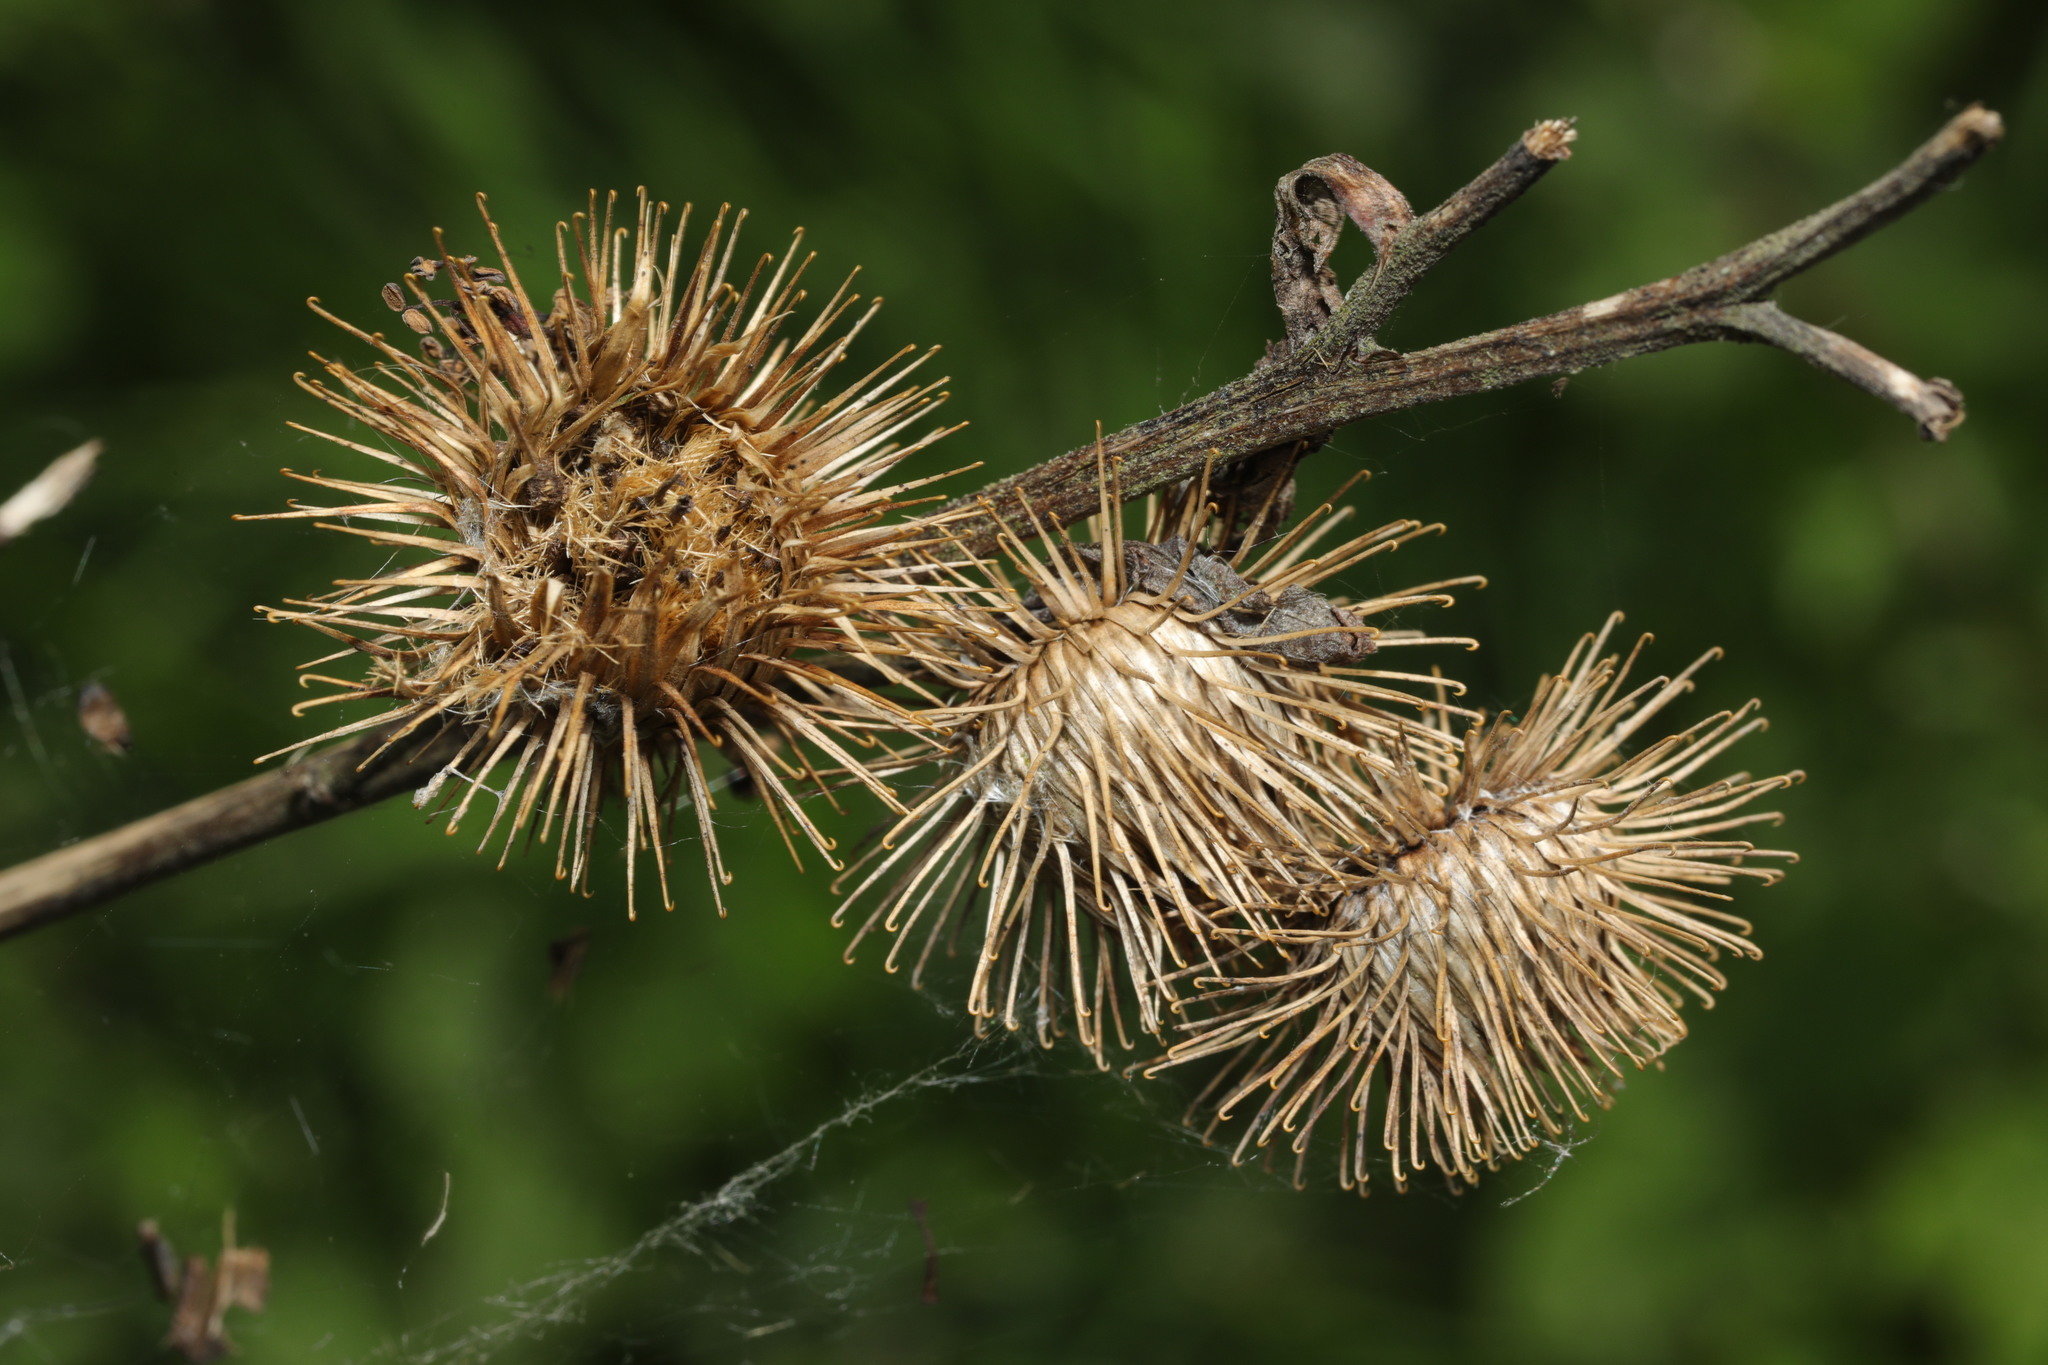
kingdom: Plantae
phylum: Tracheophyta
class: Magnoliopsida
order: Asterales
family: Asteraceae
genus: Arctium
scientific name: Arctium minus
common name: Lesser burdock
